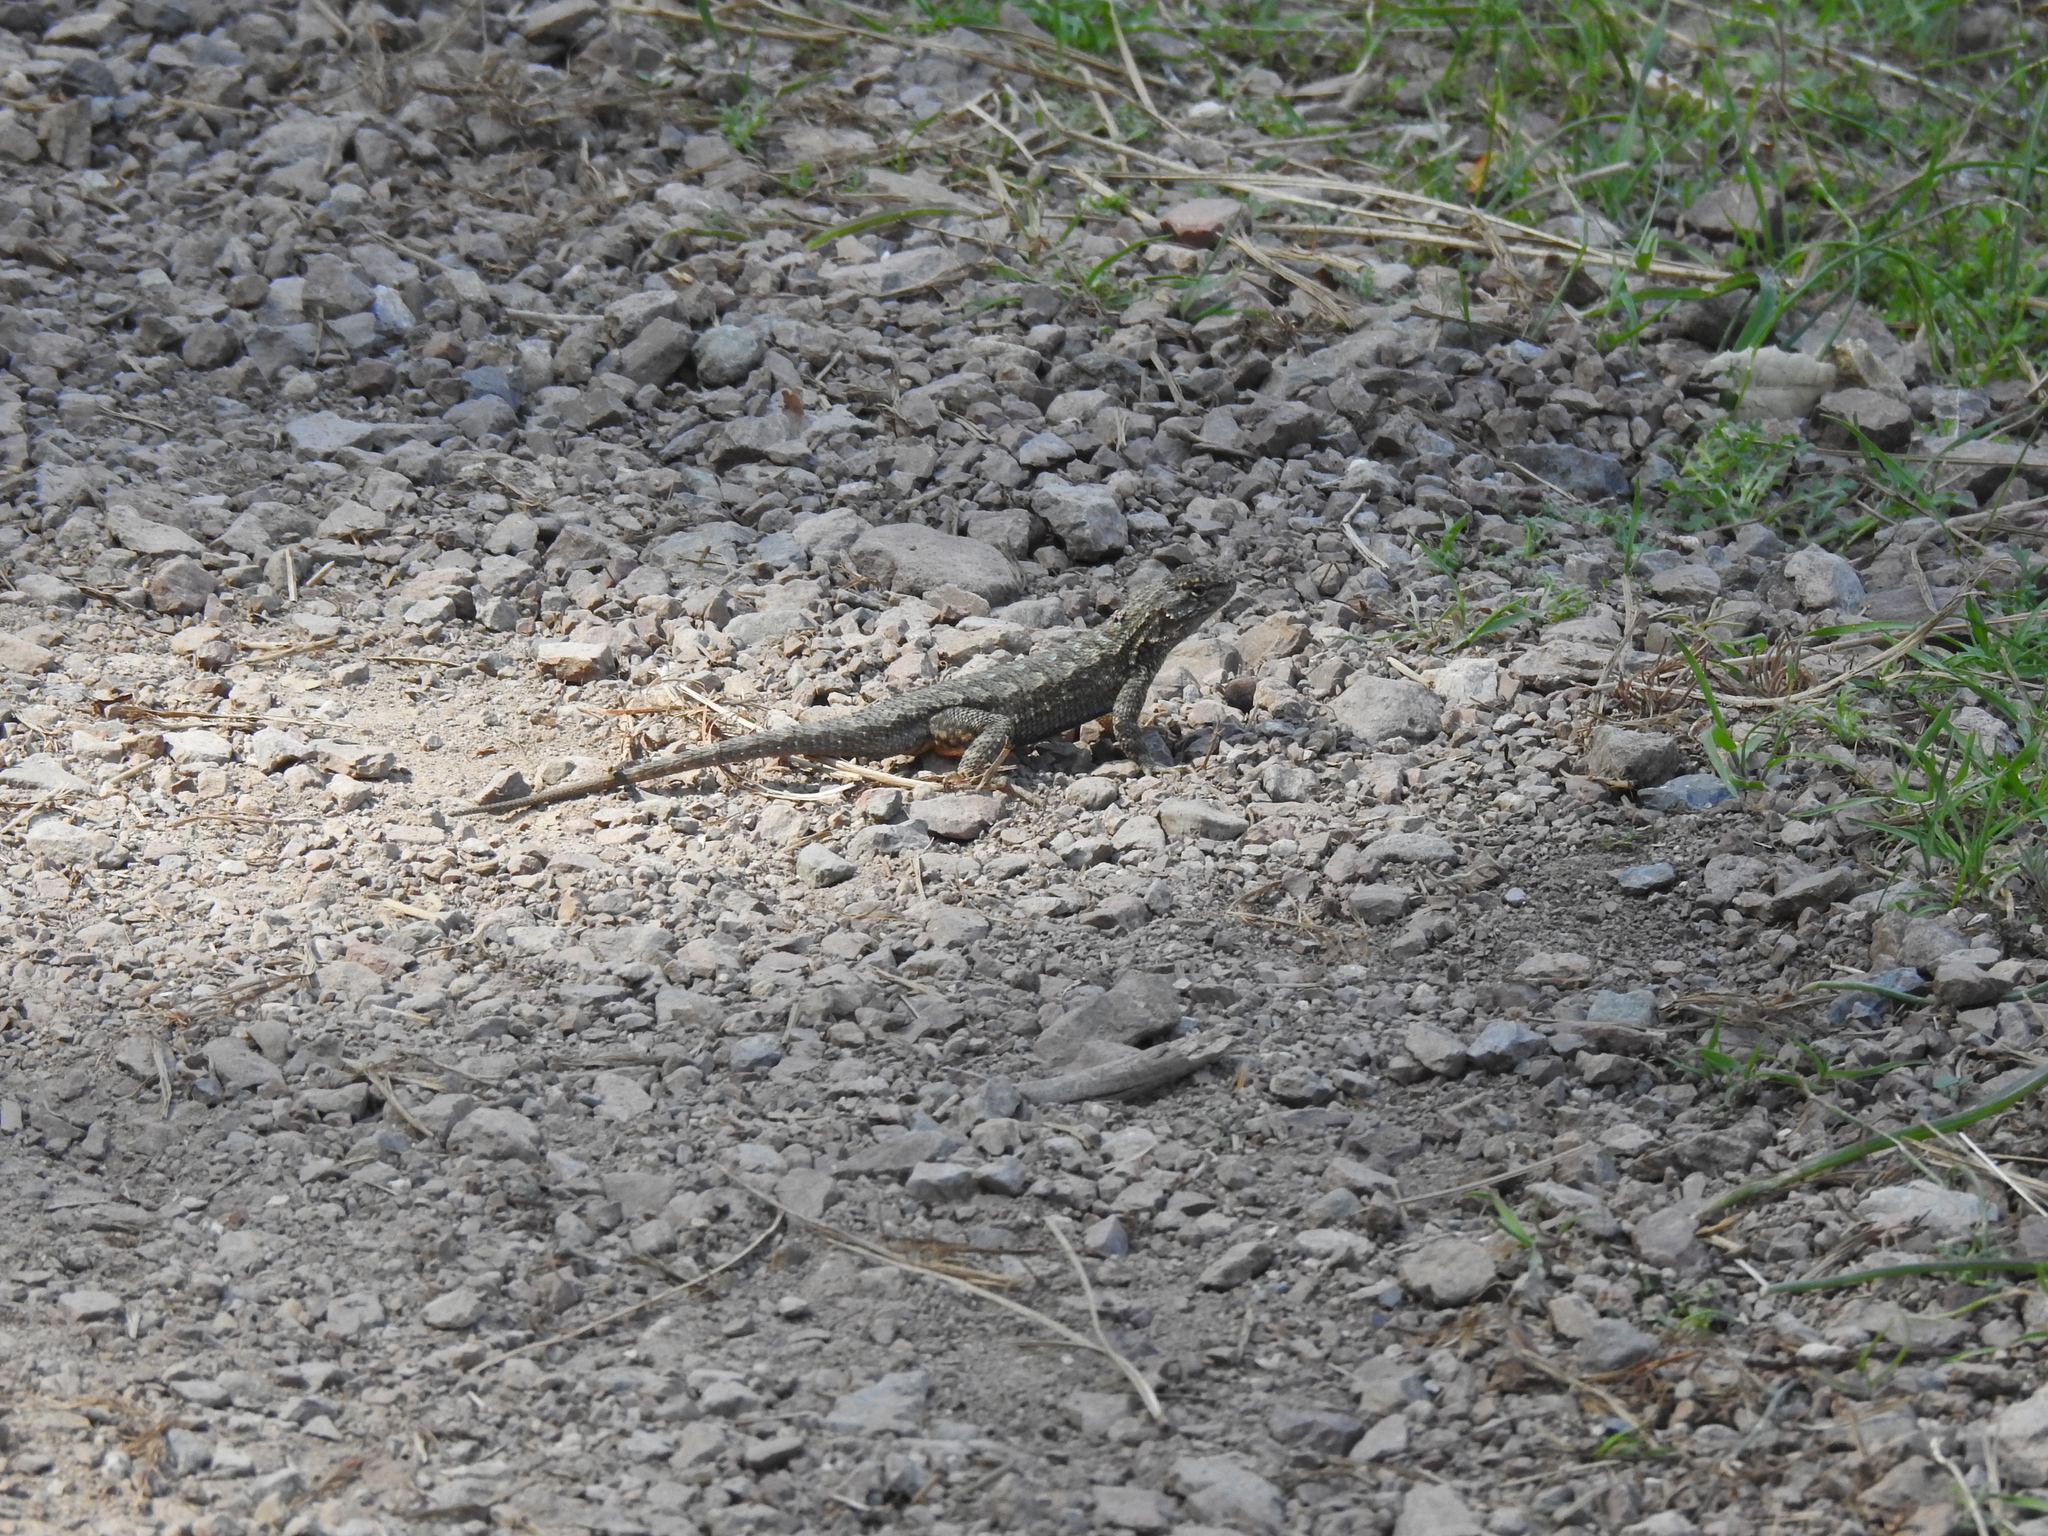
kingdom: Animalia
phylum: Chordata
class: Squamata
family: Phrynosomatidae
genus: Sceloporus
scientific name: Sceloporus occidentalis
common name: Western fence lizard
